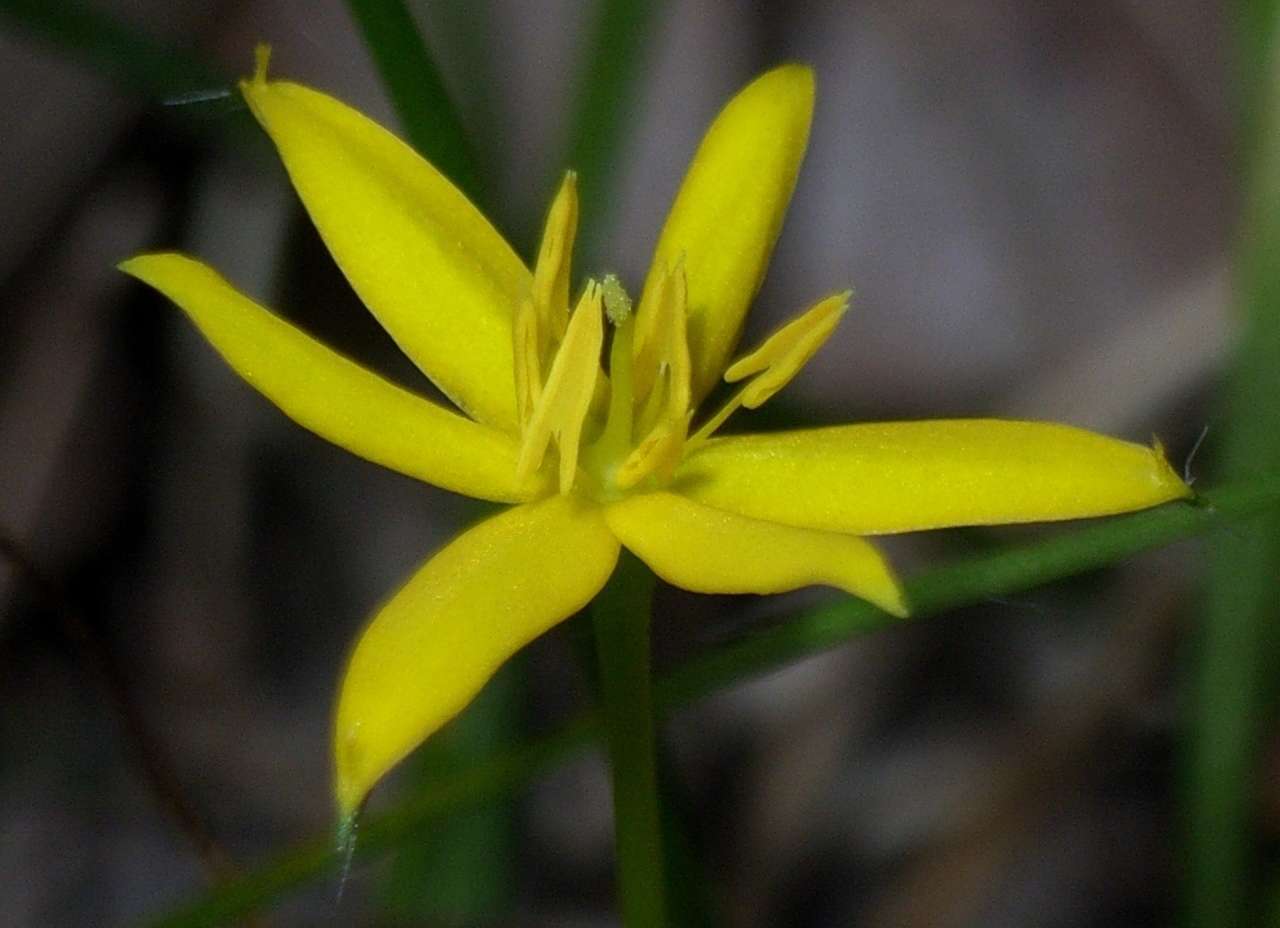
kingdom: Plantae
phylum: Tracheophyta
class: Liliopsida
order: Asparagales
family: Hypoxidaceae
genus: Hypoxis
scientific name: Hypoxis hygrometrica
